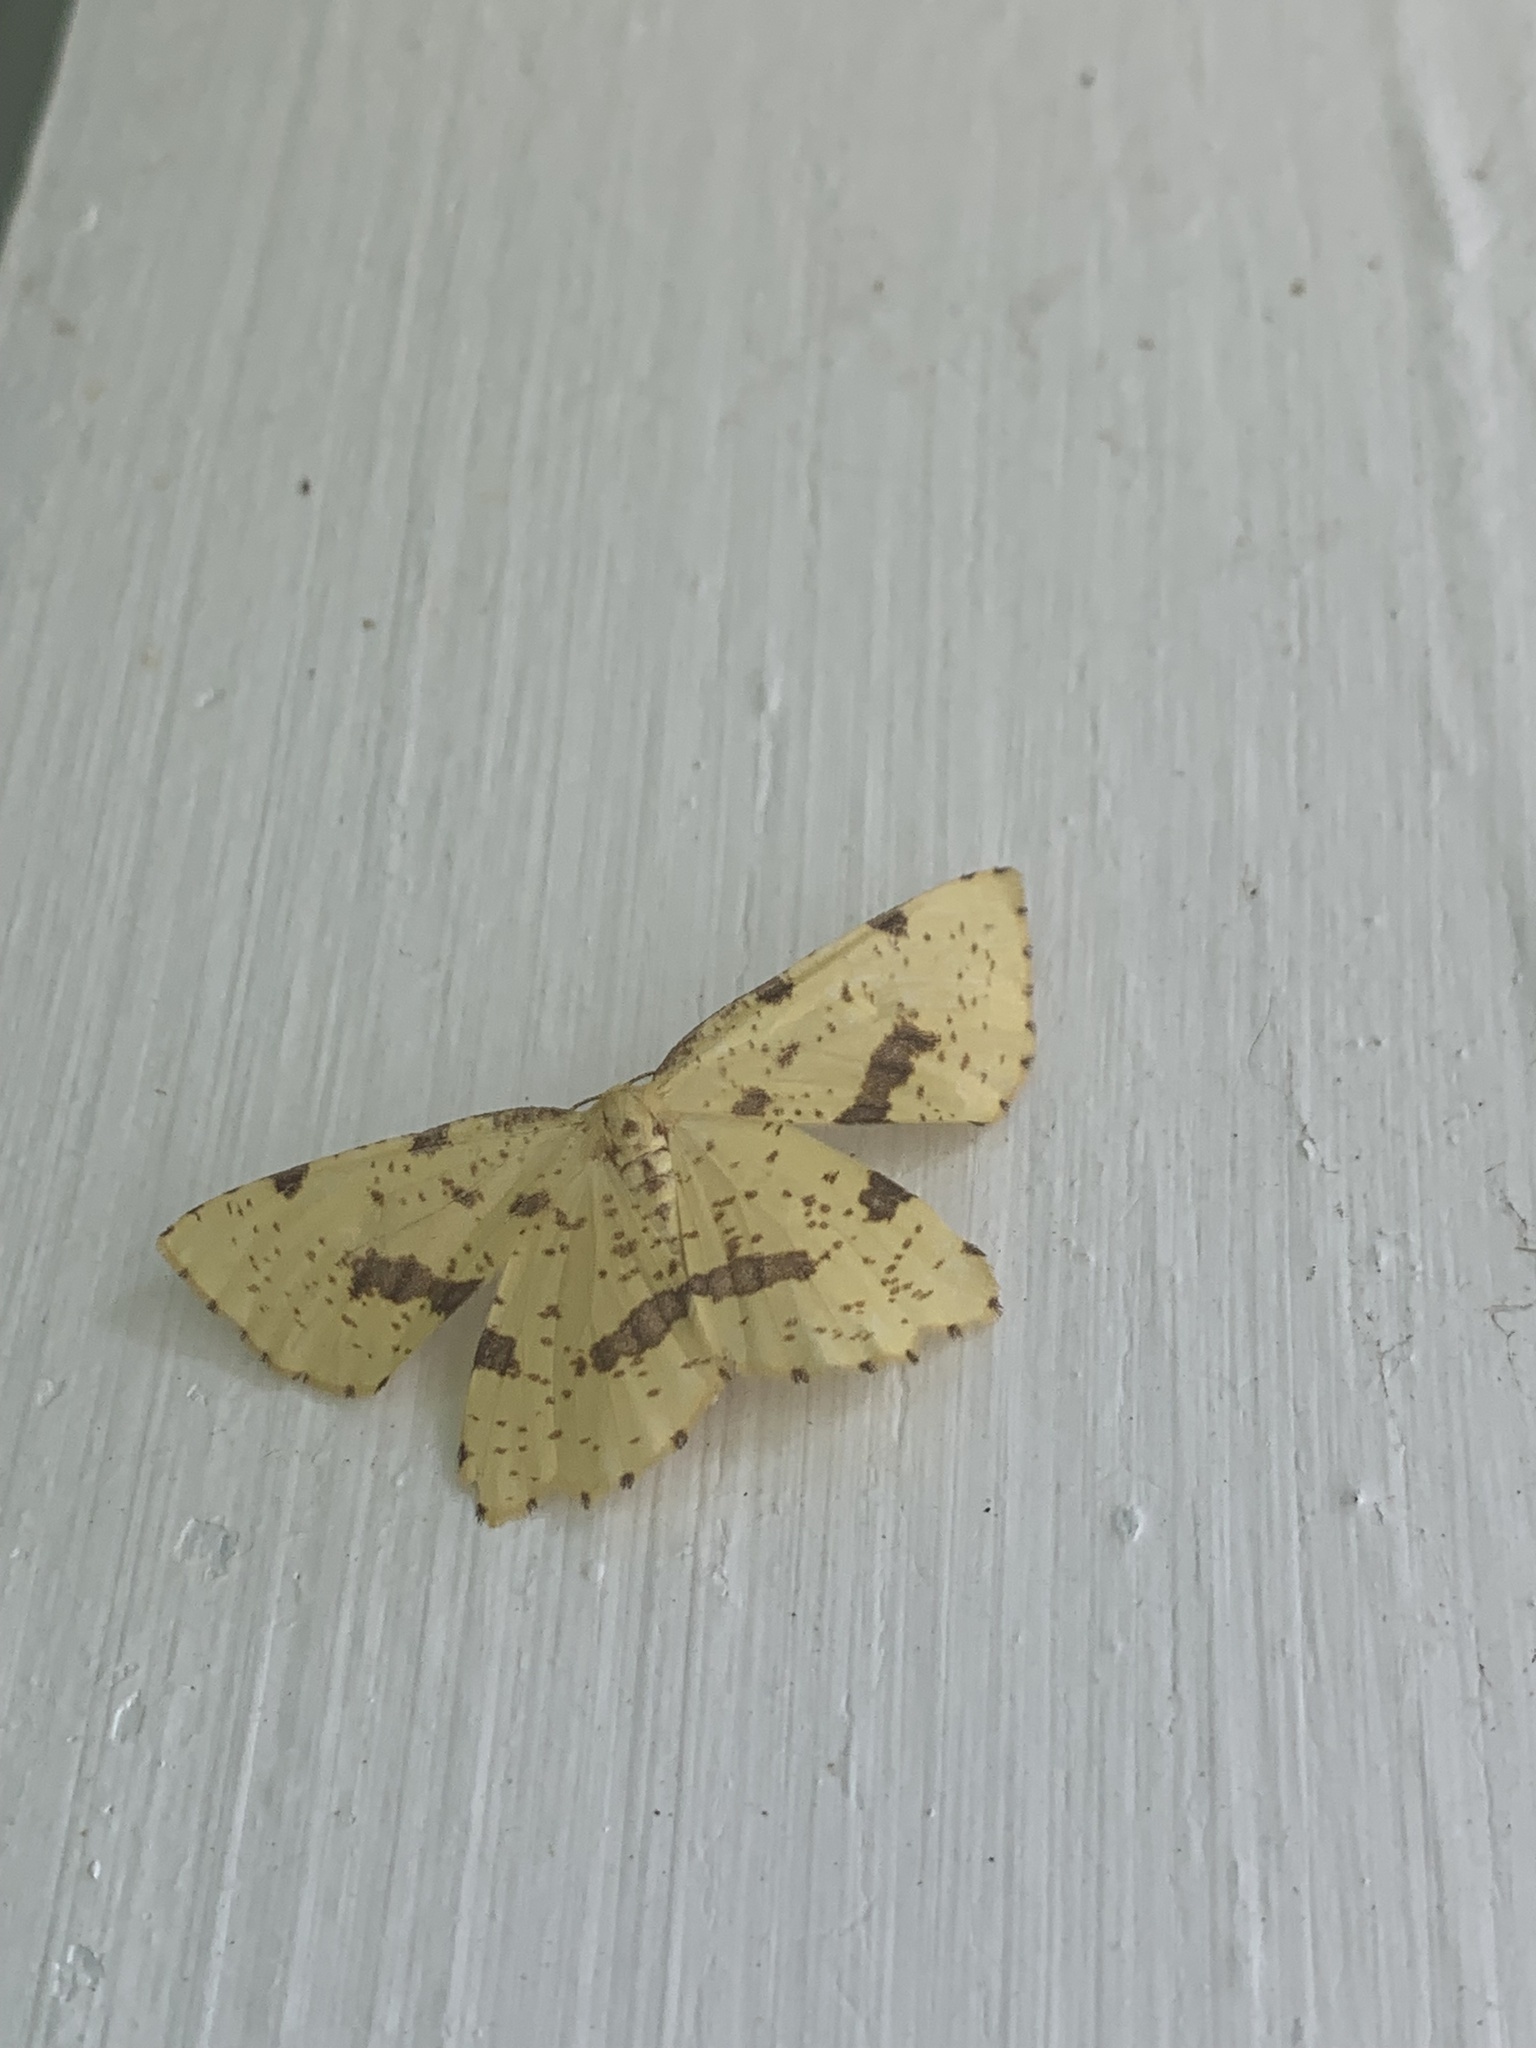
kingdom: Animalia
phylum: Arthropoda
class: Insecta
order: Lepidoptera
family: Geometridae
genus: Xanthotype
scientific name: Xanthotype
